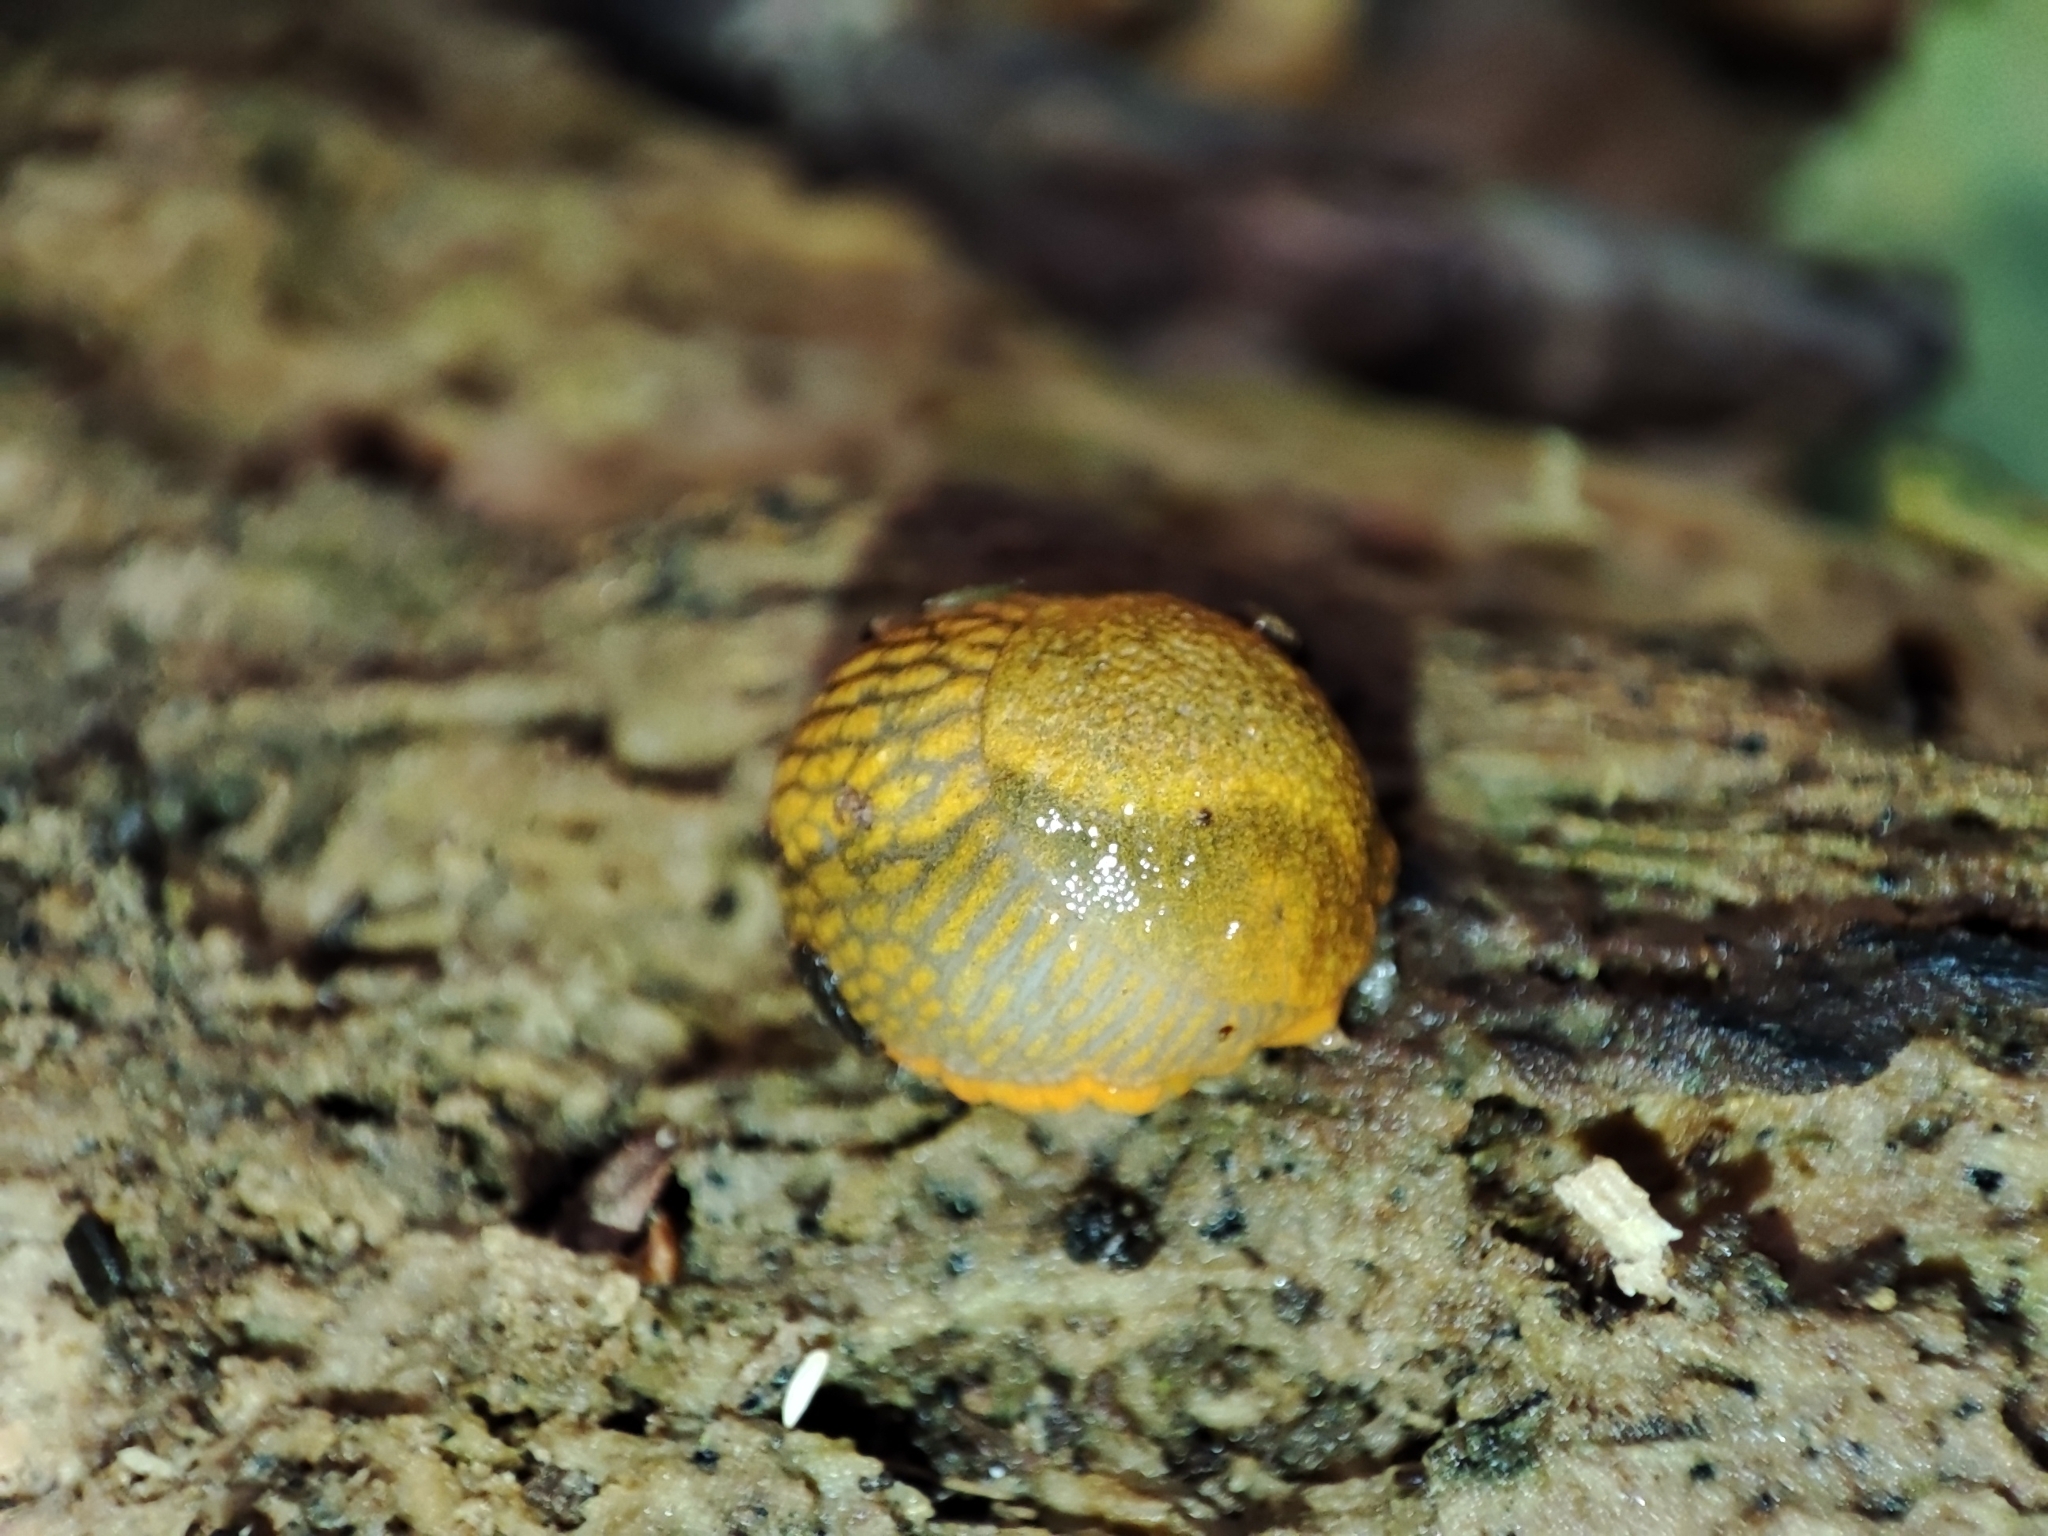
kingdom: Animalia
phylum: Mollusca
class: Gastropoda
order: Stylommatophora
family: Arionidae
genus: Arion
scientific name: Arion vulgaris
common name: Lusitanian slug
